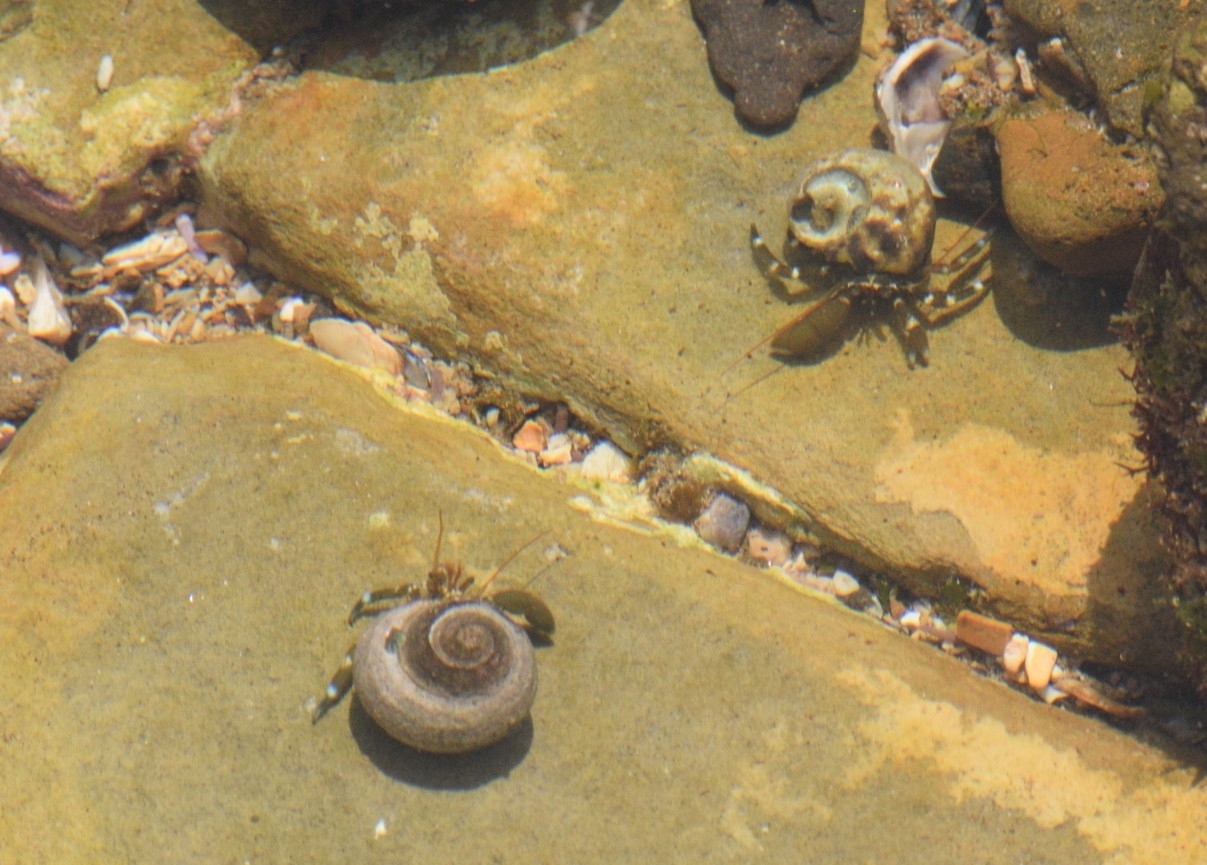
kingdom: Animalia
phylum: Arthropoda
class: Malacostraca
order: Decapoda
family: Paguridae
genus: Pagurus
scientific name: Pagurus samuelis
